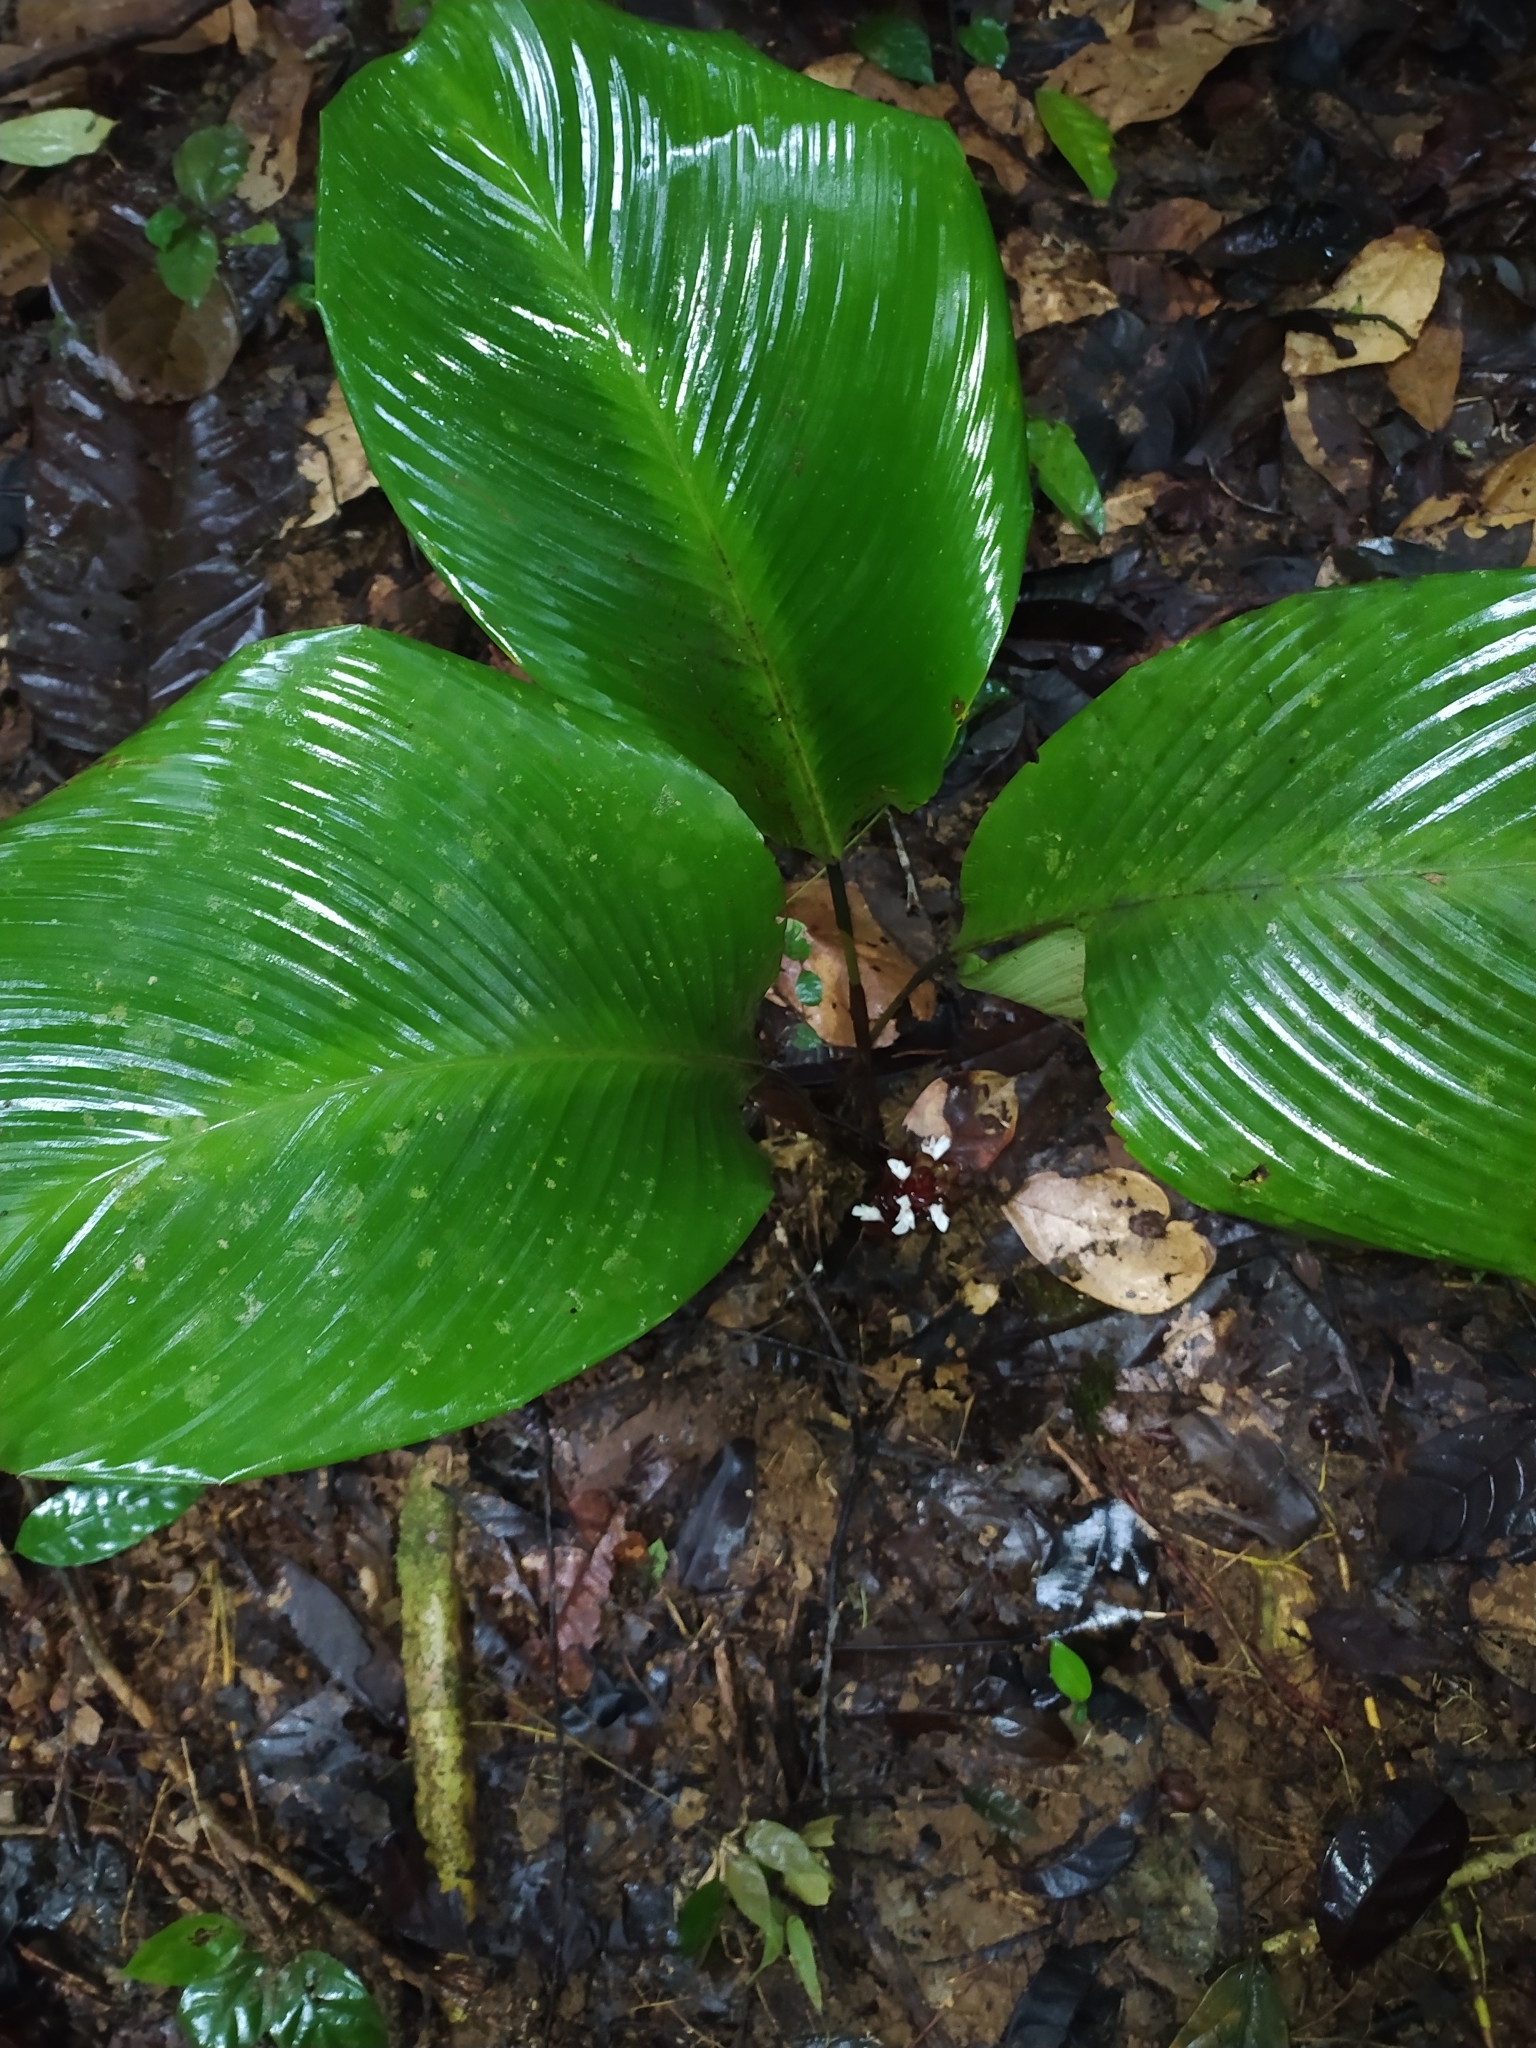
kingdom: Plantae
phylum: Tracheophyta
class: Liliopsida
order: Zingiberales
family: Marantaceae
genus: Goeppertia
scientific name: Goeppertia erecta
